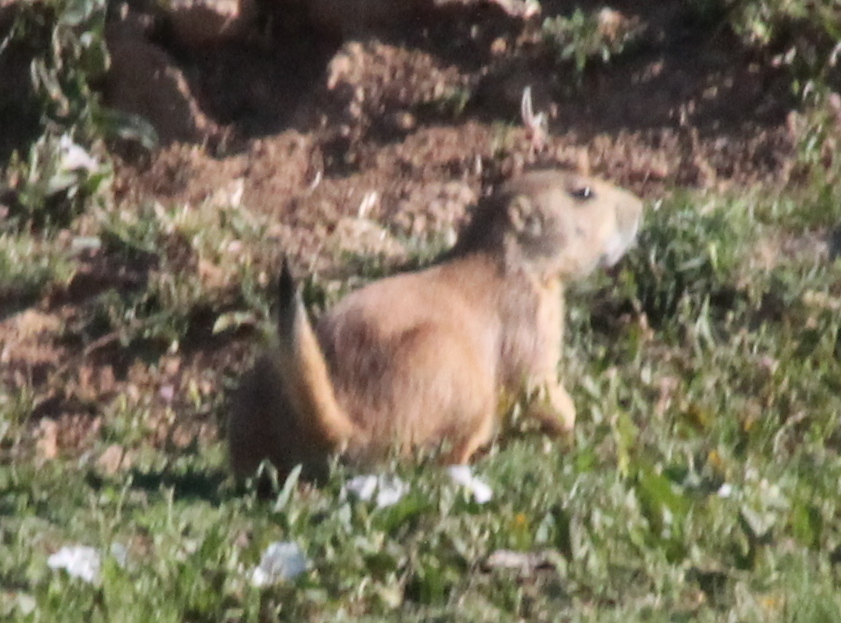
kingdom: Animalia
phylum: Chordata
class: Mammalia
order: Rodentia
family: Sciuridae
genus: Cynomys
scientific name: Cynomys ludovicianus
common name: Black-tailed prairie dog
